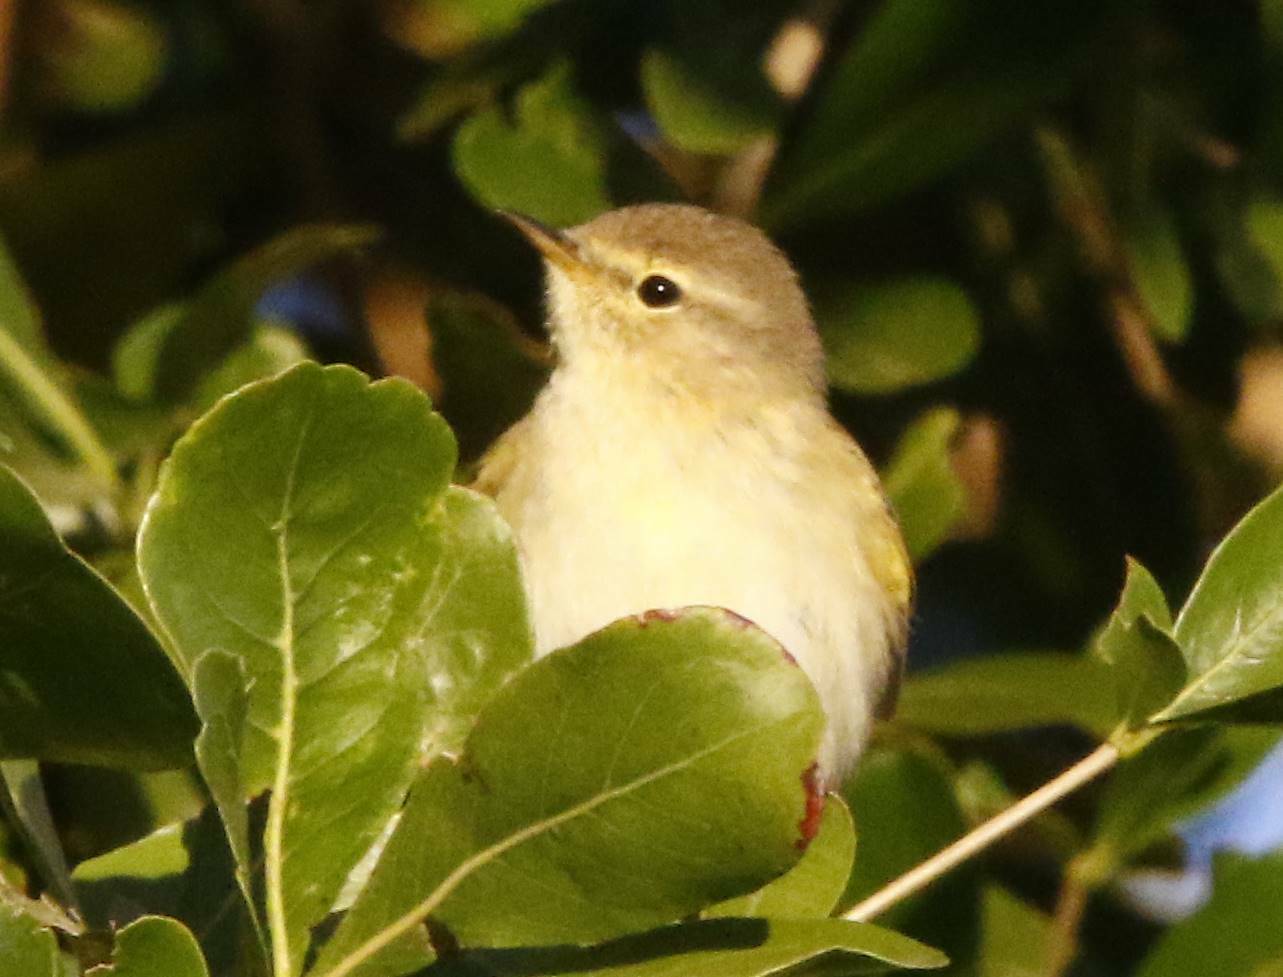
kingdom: Animalia
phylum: Chordata
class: Aves
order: Passeriformes
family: Phylloscopidae
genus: Phylloscopus
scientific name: Phylloscopus collybita
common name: Common chiffchaff
